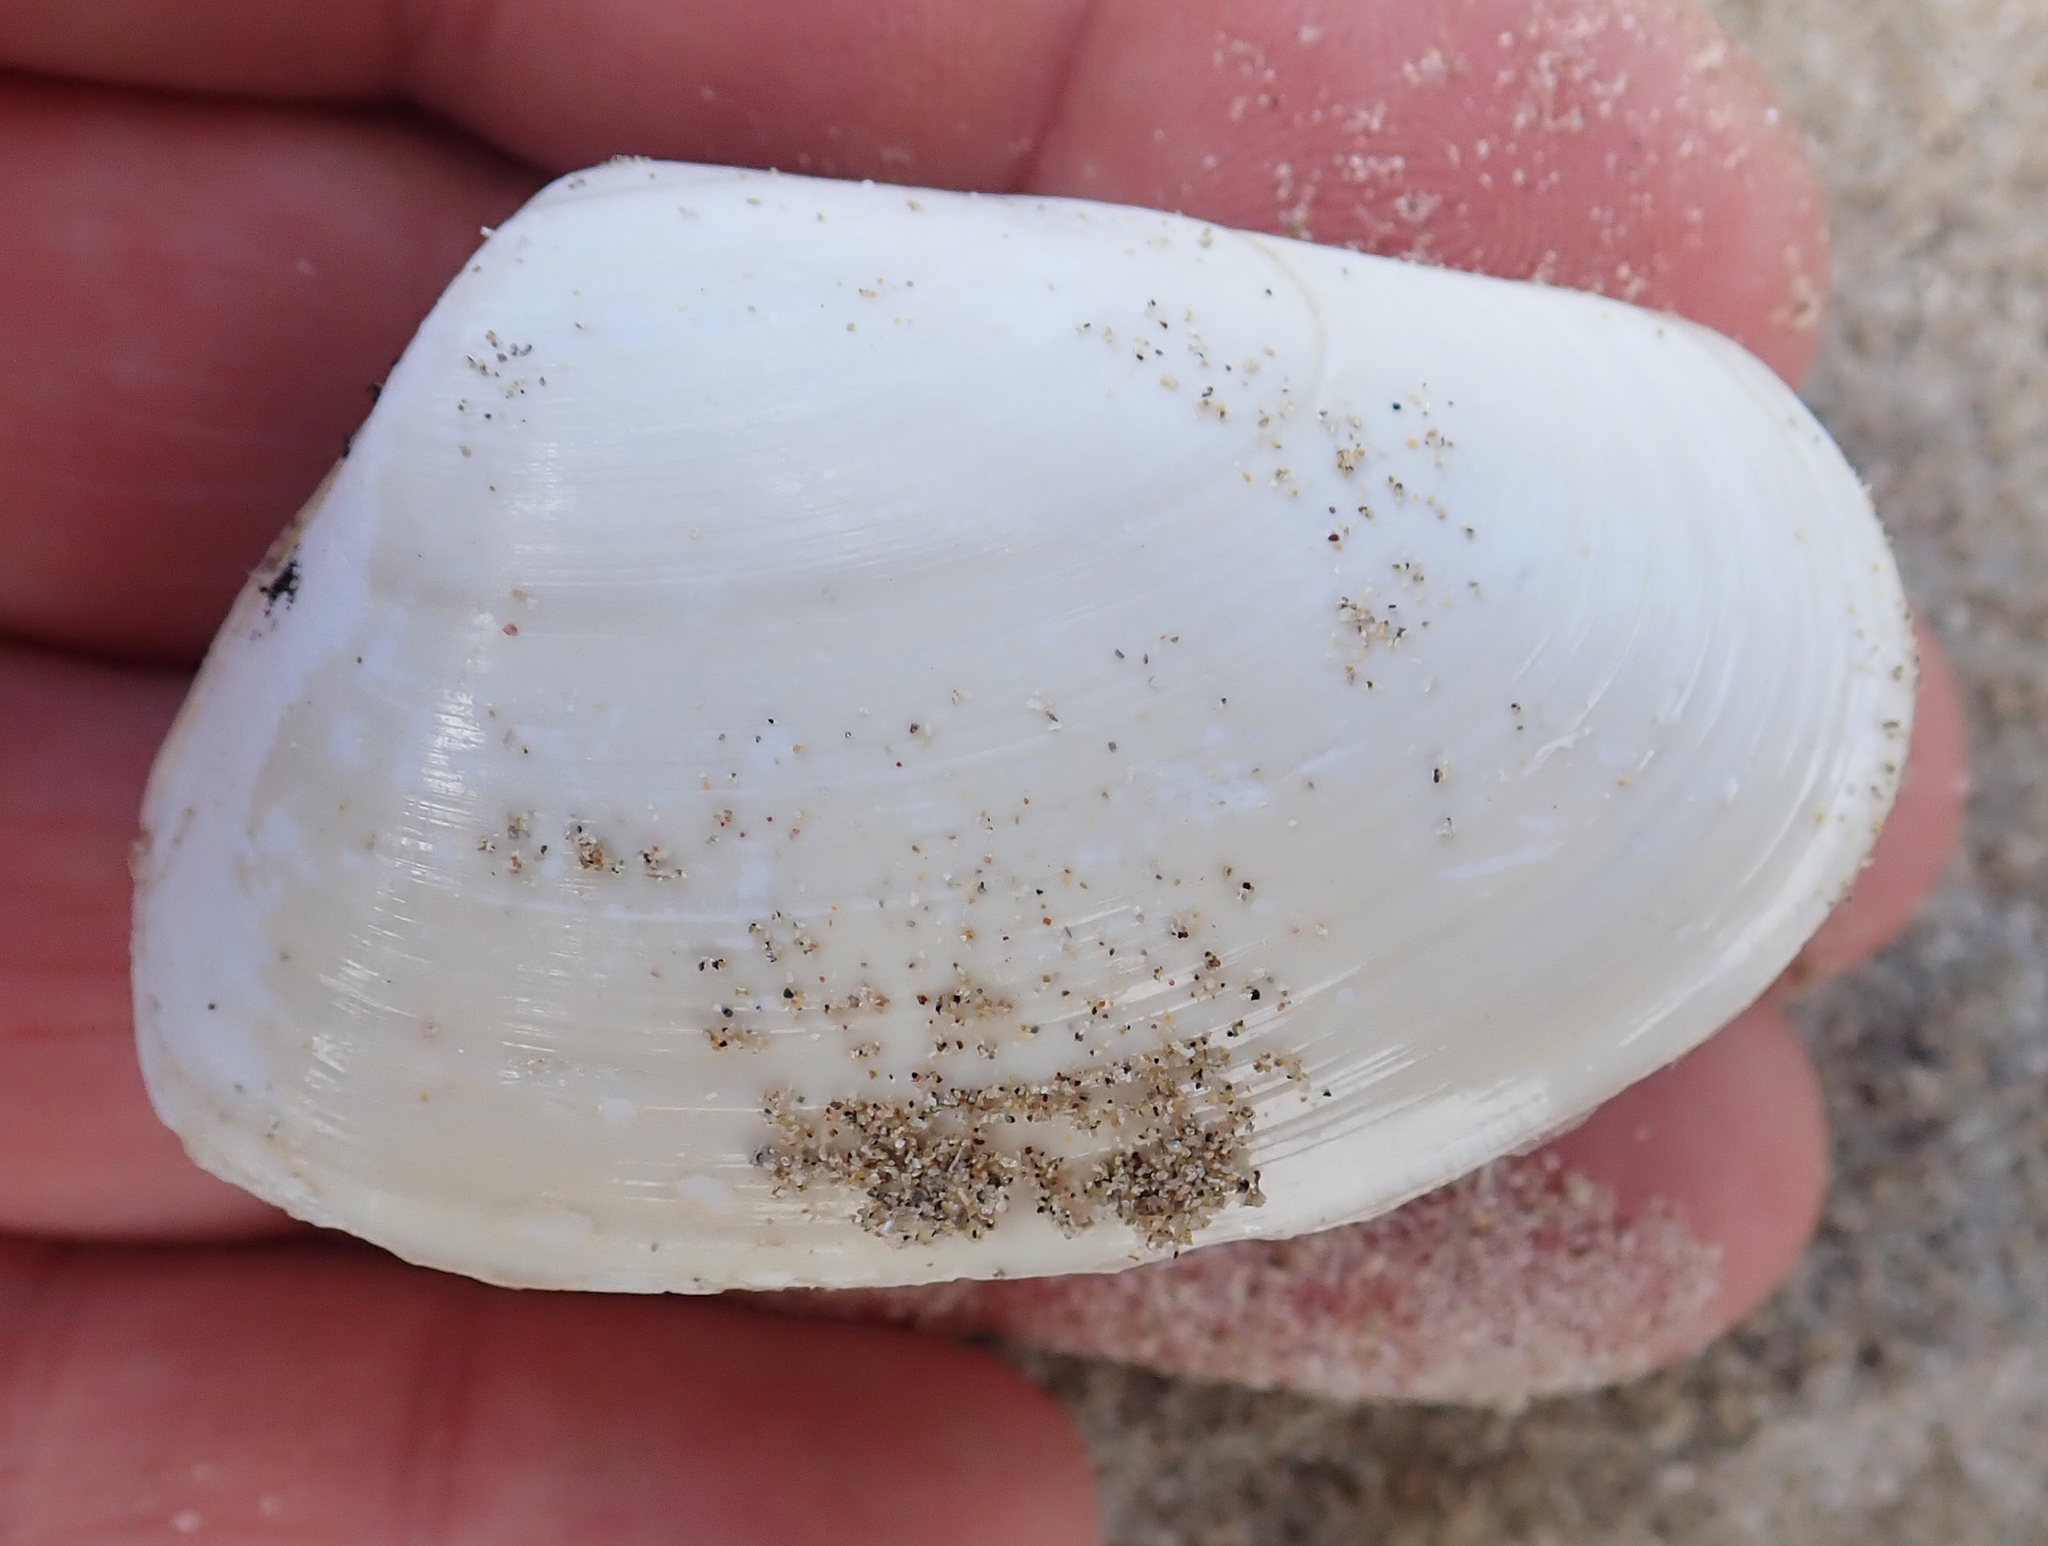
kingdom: Animalia
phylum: Mollusca
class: Bivalvia
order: Venerida
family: Mesodesmatidae
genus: Paphies
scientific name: Paphies subtriangulata
